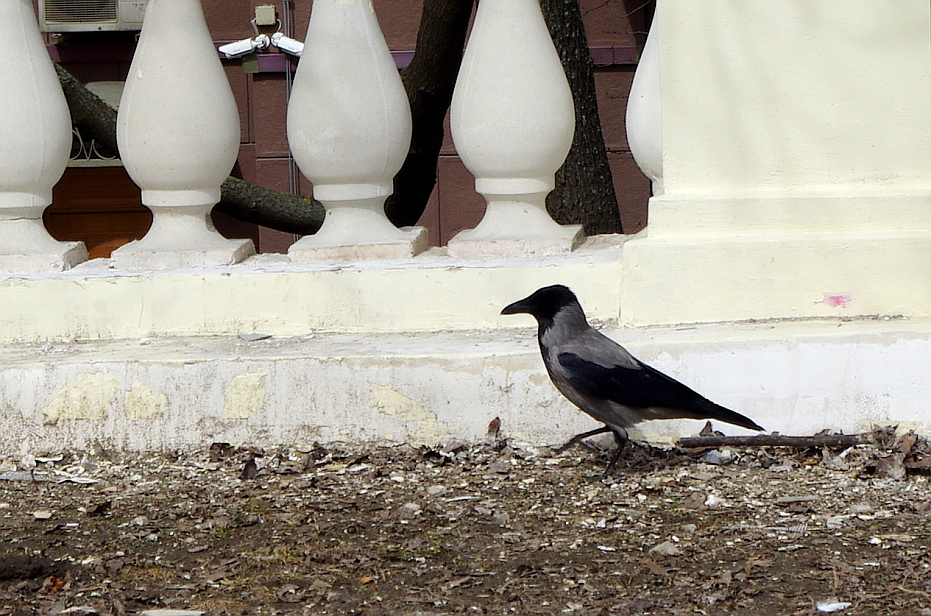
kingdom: Animalia
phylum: Chordata
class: Aves
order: Passeriformes
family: Corvidae
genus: Corvus
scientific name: Corvus cornix
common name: Hooded crow
